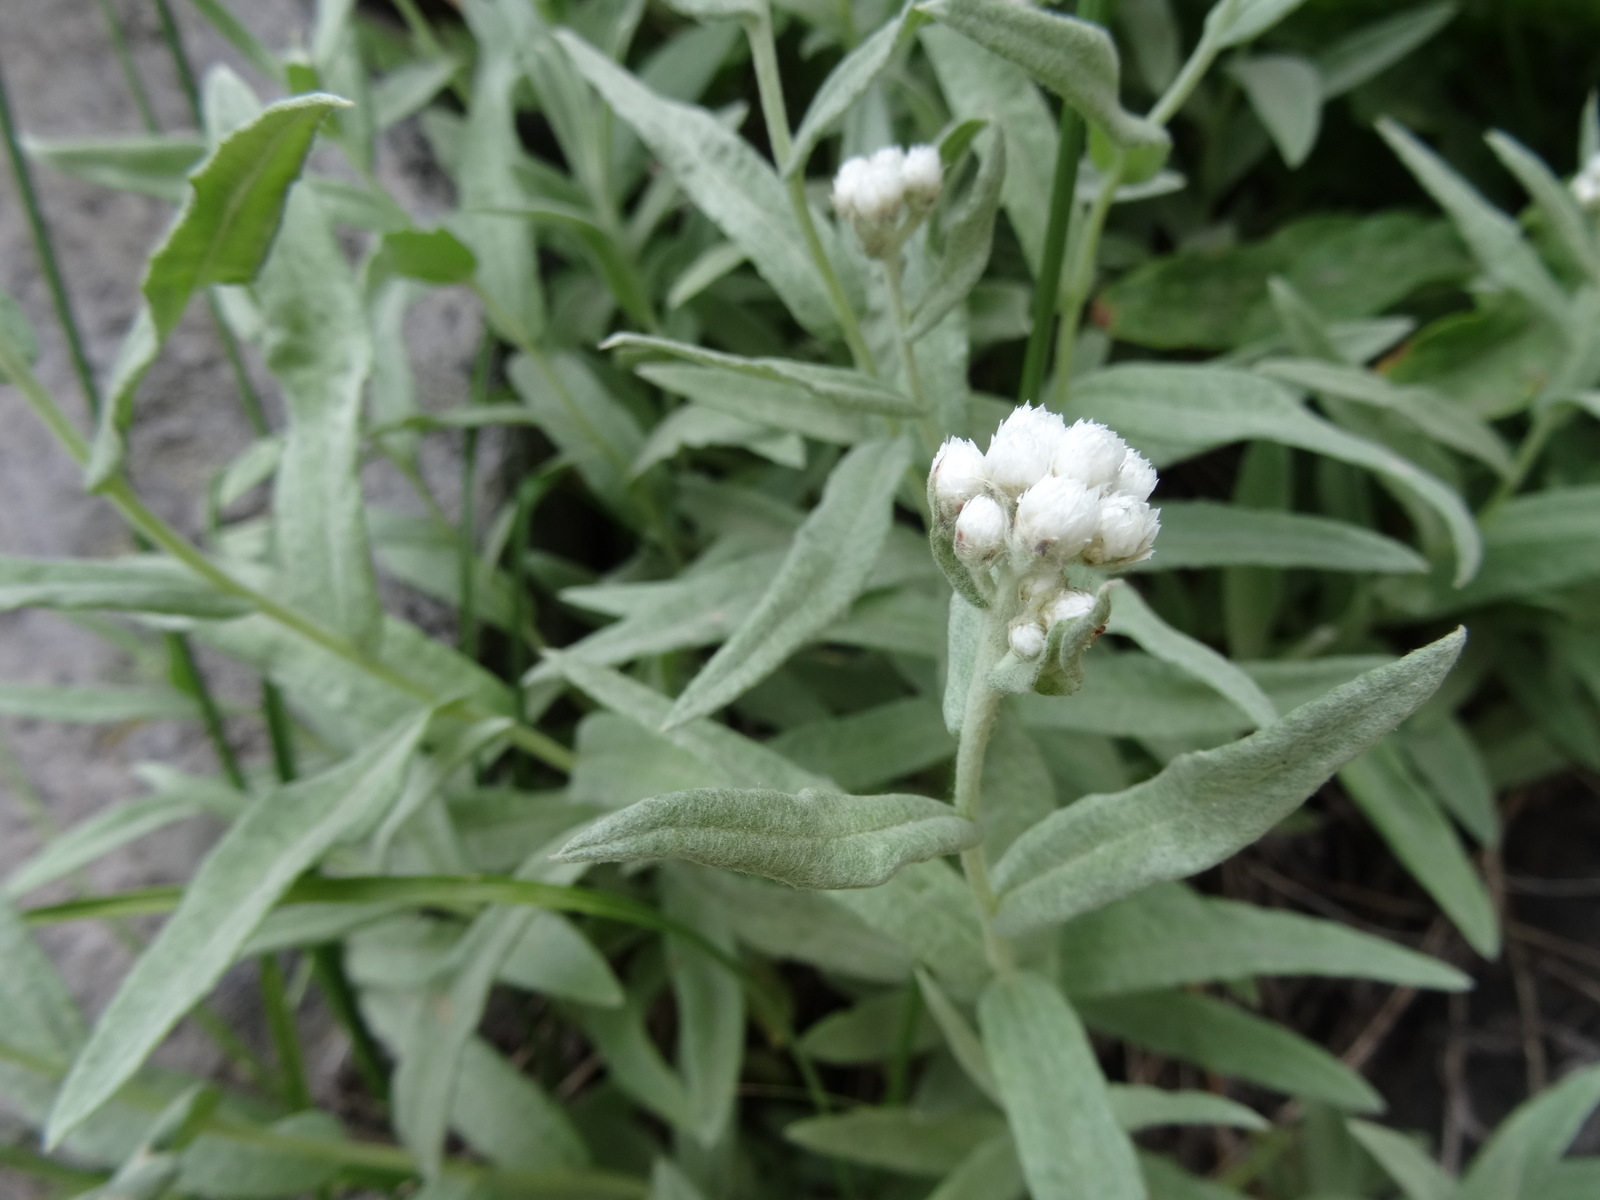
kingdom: Plantae
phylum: Tracheophyta
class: Magnoliopsida
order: Asterales
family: Asteraceae
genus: Anaphalis
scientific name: Anaphalis margaritacea
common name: Pearly everlasting
